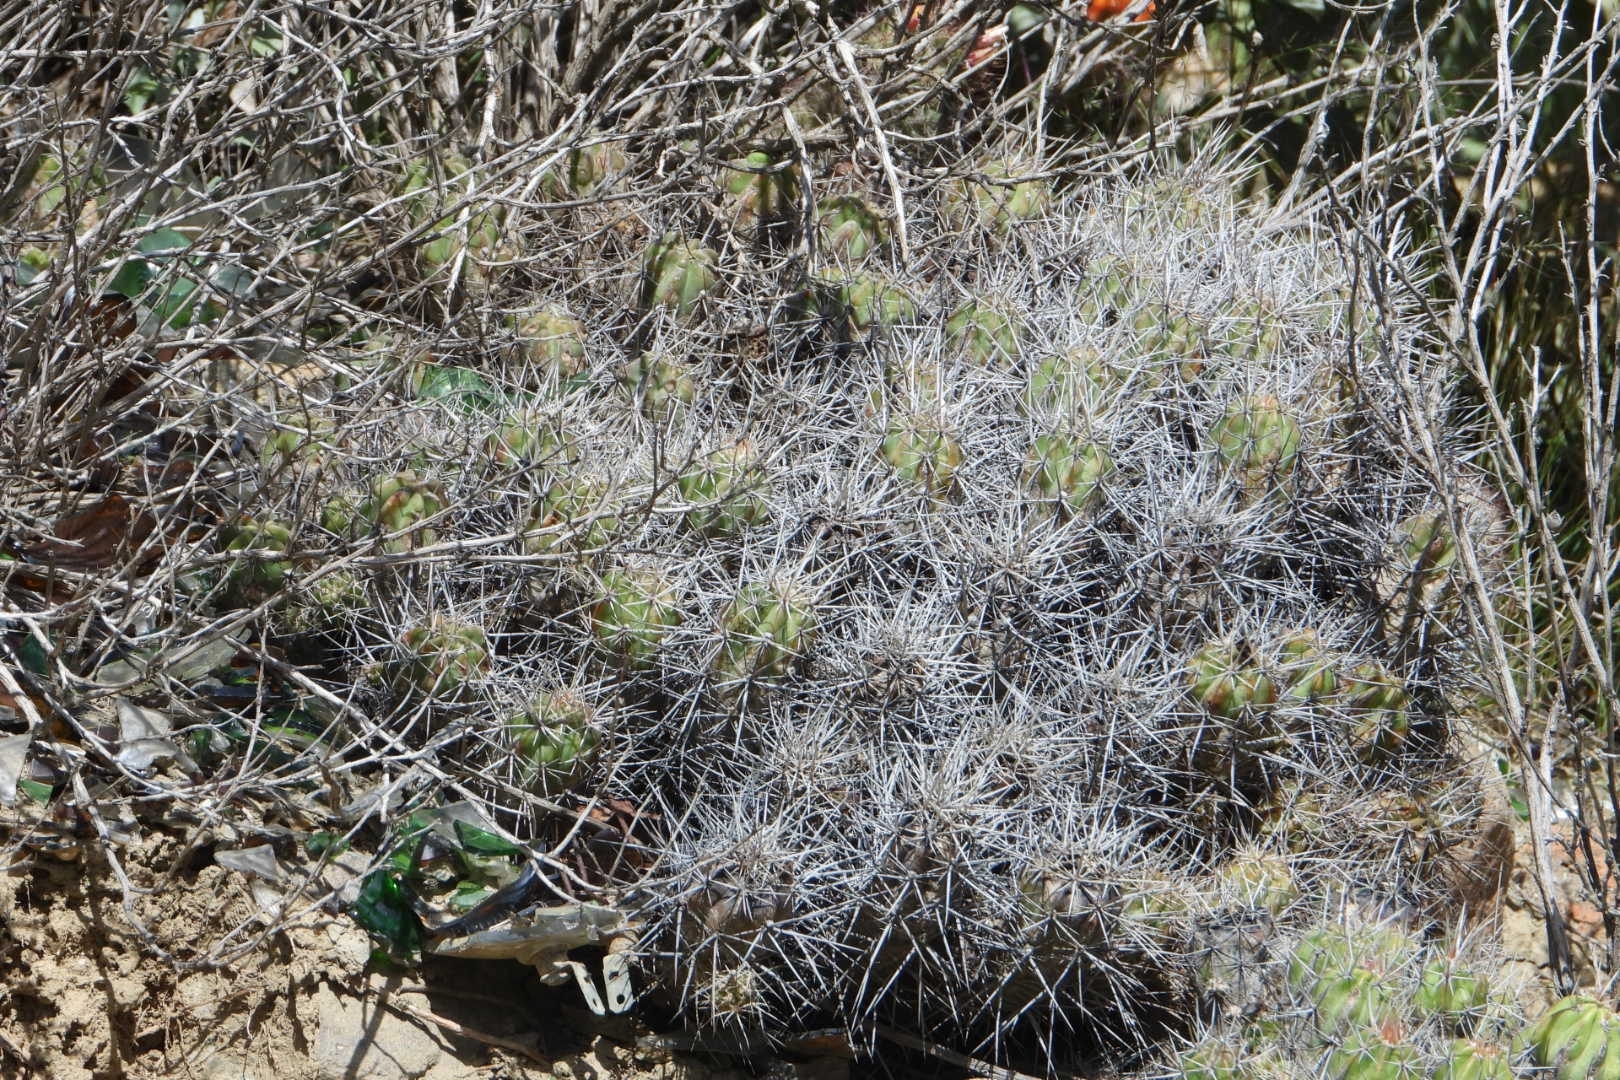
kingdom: Plantae
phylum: Tracheophyta
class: Magnoliopsida
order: Caryophyllales
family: Cactaceae
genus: Echinocereus
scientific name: Echinocereus maritimus
